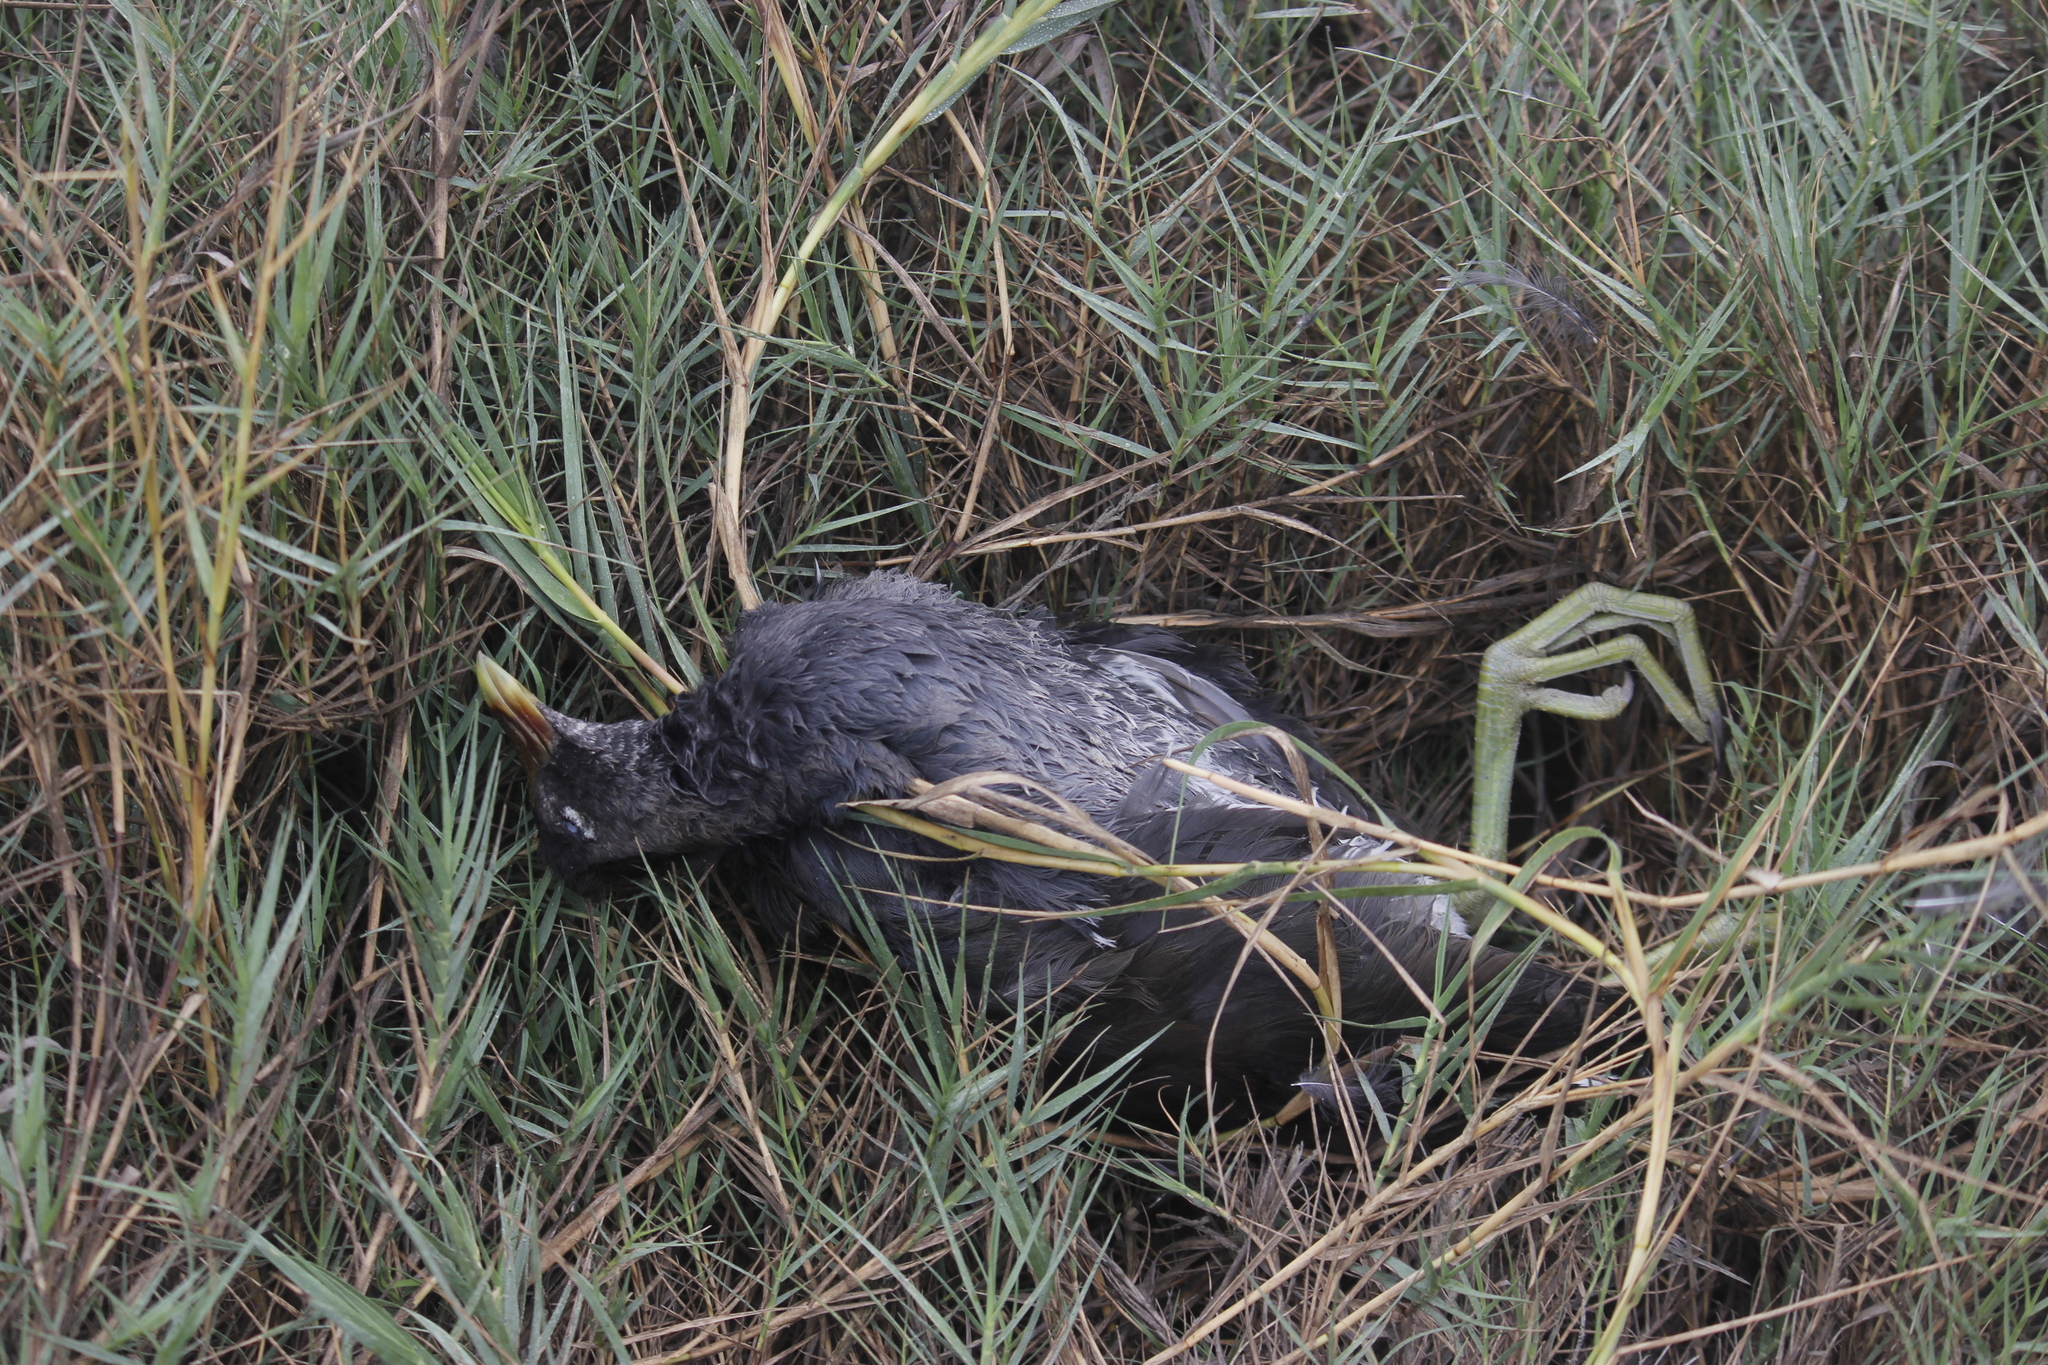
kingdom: Animalia
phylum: Chordata
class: Aves
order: Gruiformes
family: Rallidae
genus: Gallinula
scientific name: Gallinula chloropus
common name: Common moorhen
